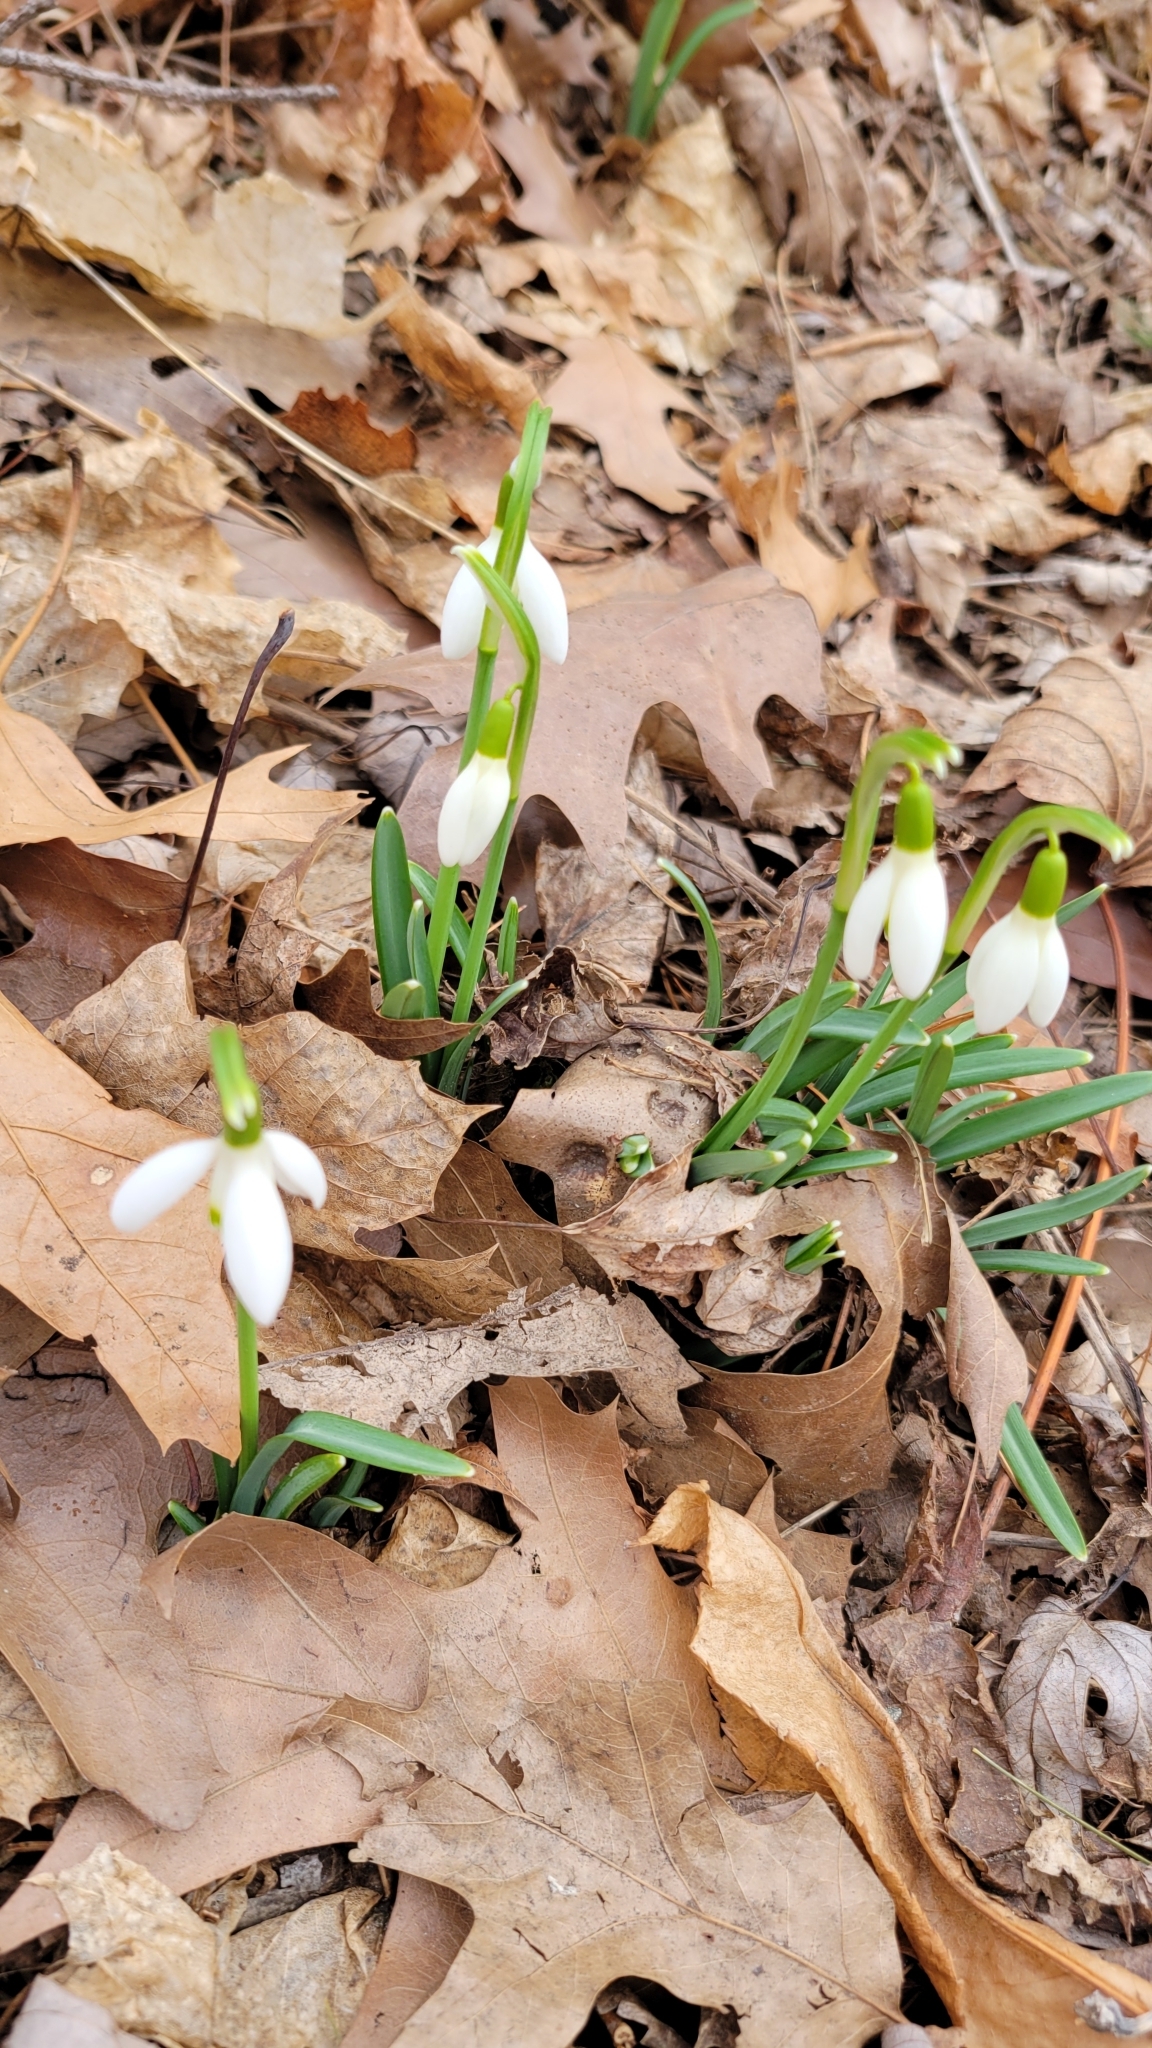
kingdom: Plantae
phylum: Tracheophyta
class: Liliopsida
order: Asparagales
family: Amaryllidaceae
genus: Galanthus
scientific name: Galanthus nivalis
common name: Snowdrop
